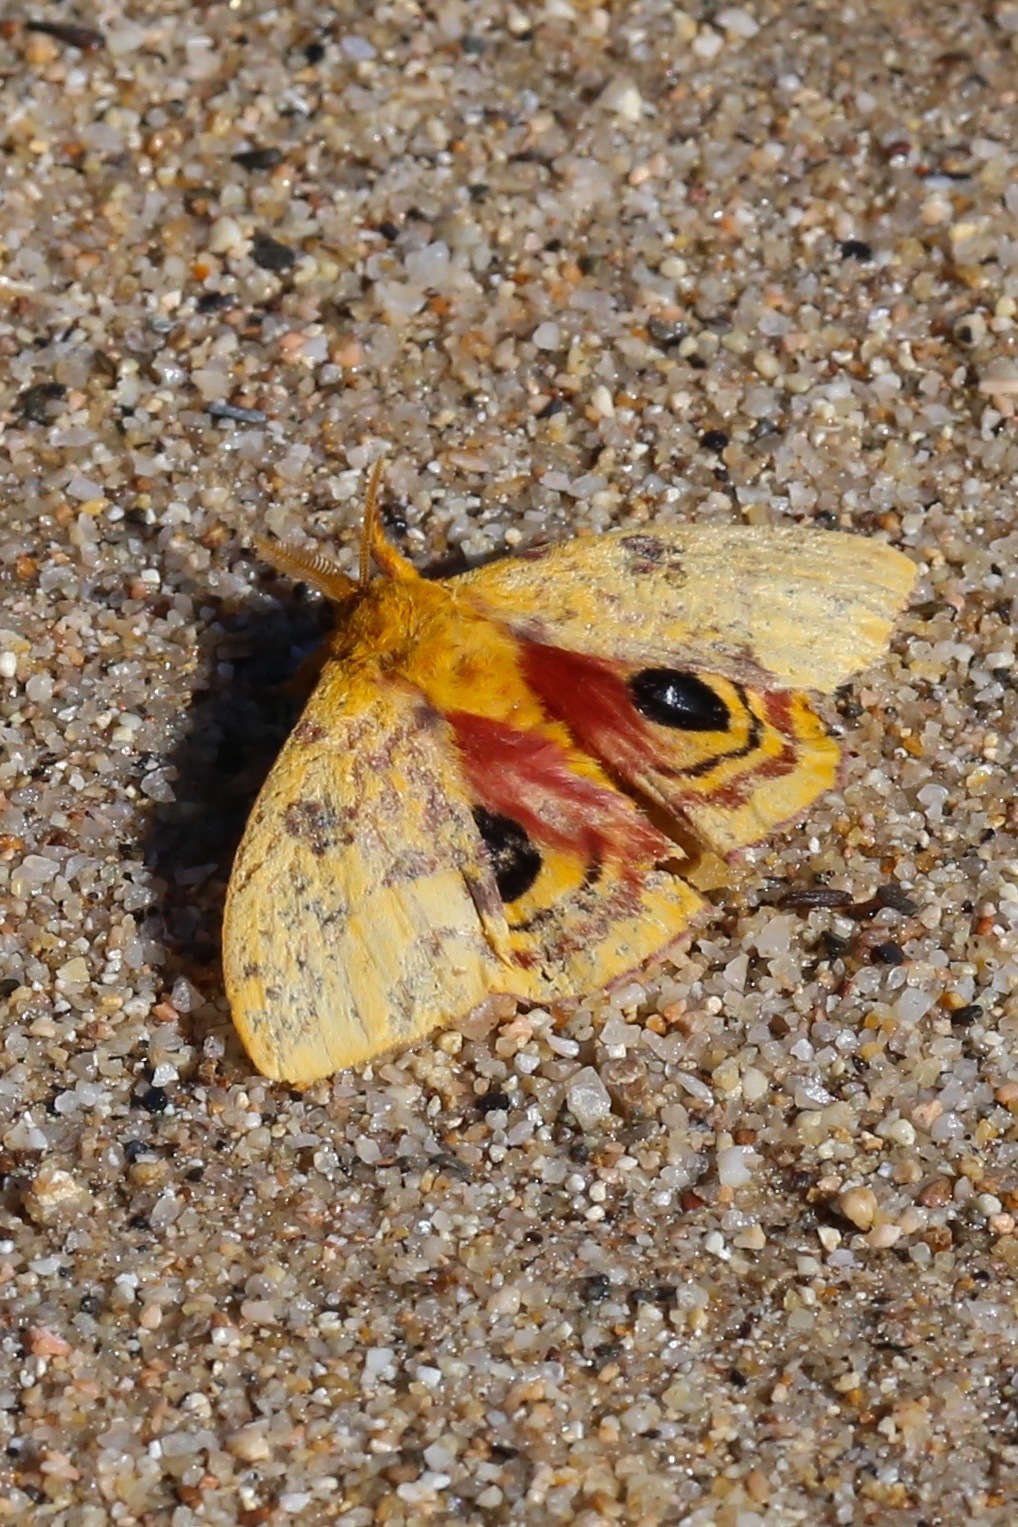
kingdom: Animalia
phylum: Arthropoda
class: Insecta
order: Lepidoptera
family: Saturniidae
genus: Automeris
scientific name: Automeris io
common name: Io moth
